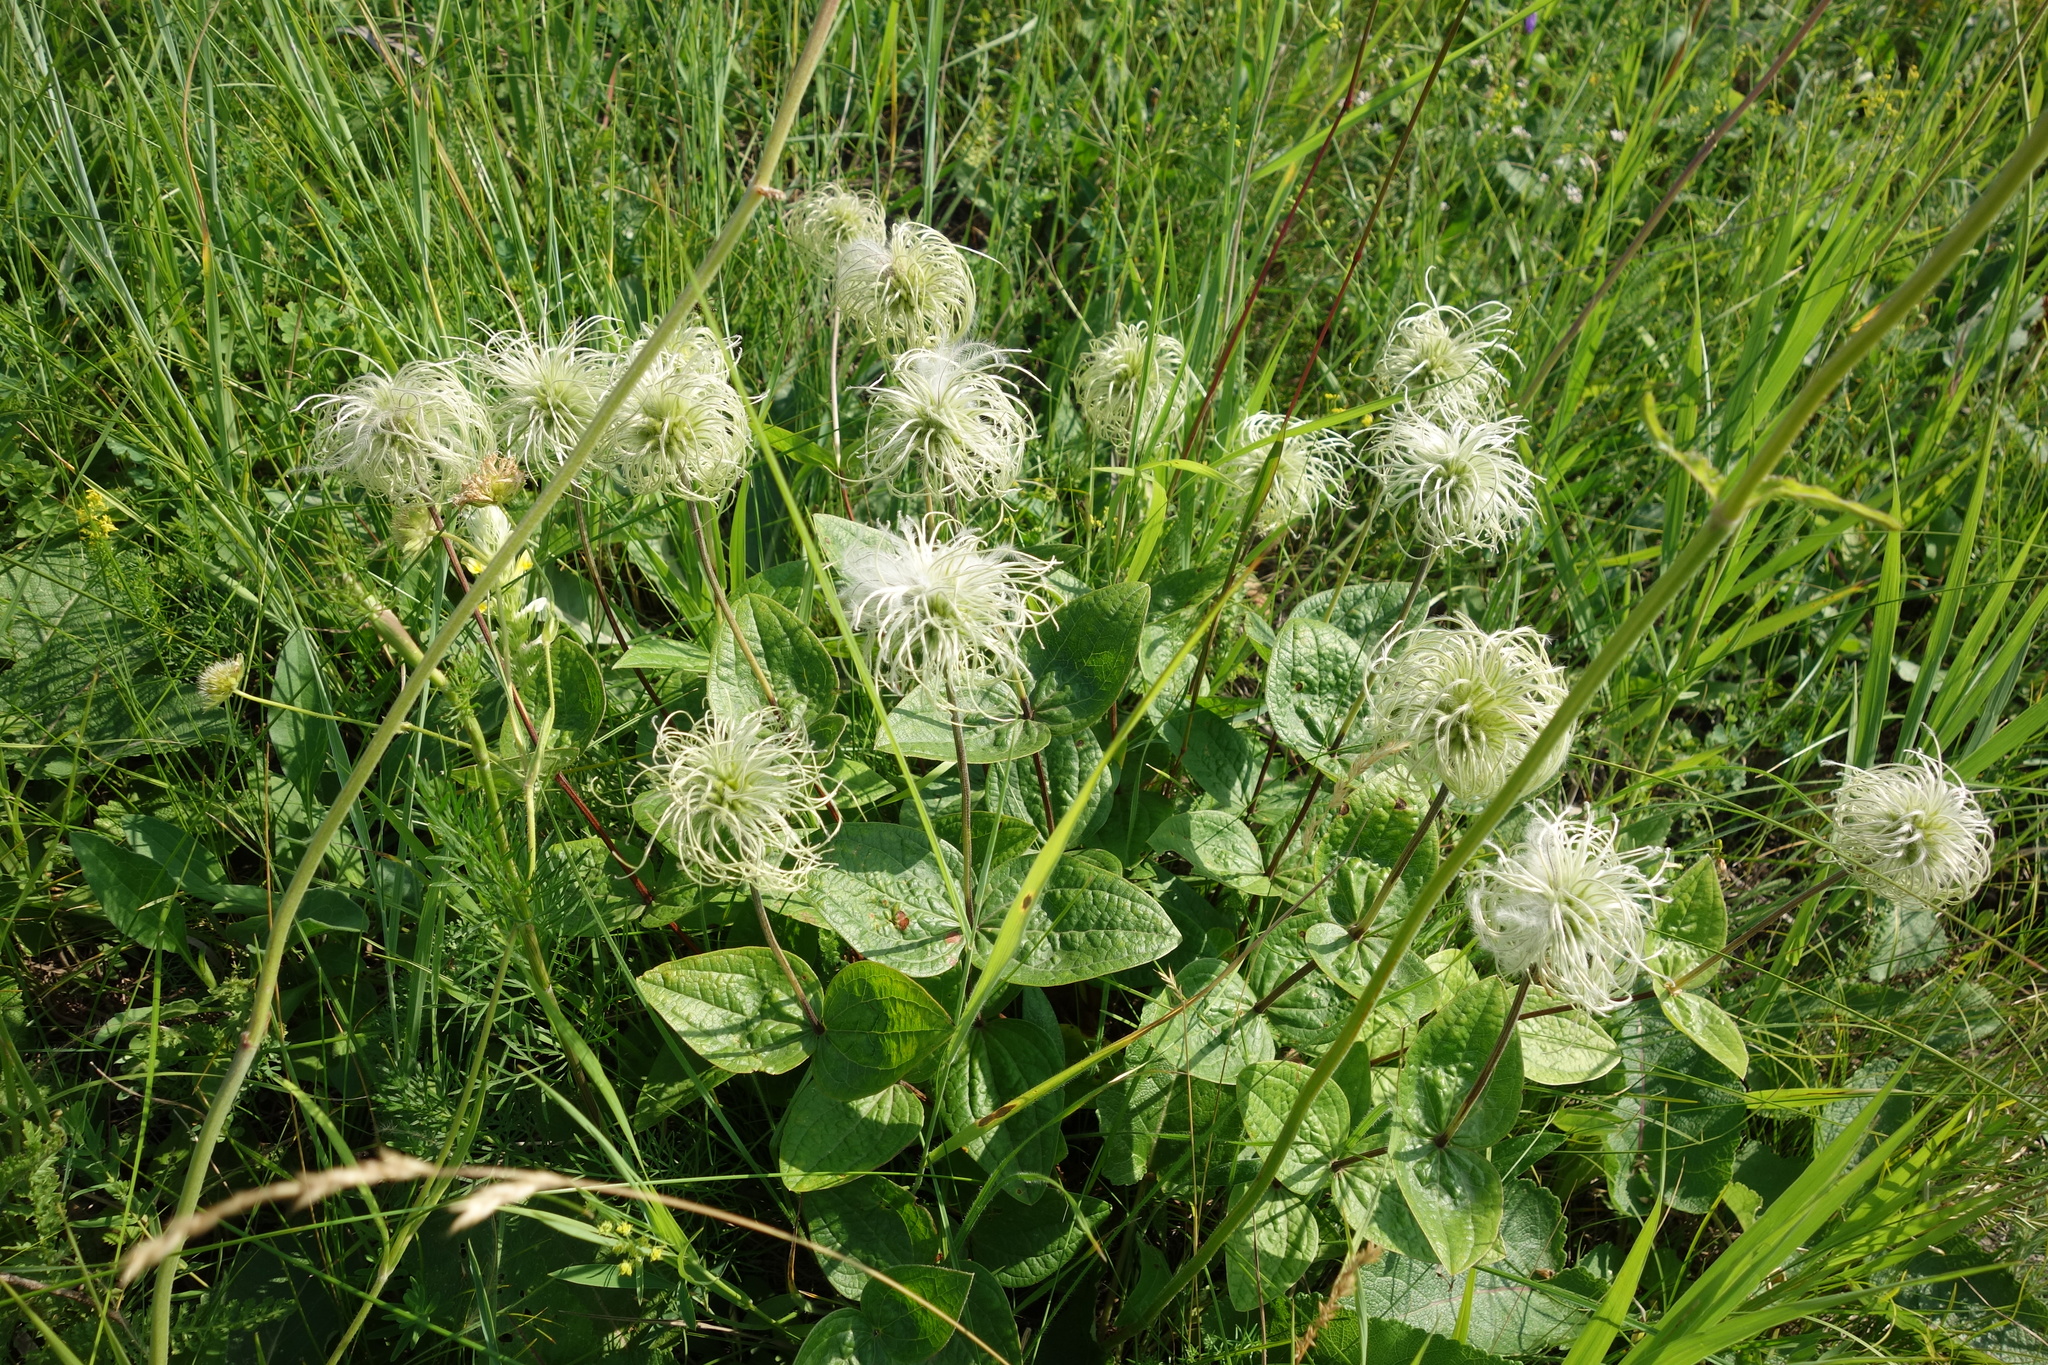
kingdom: Plantae
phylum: Tracheophyta
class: Magnoliopsida
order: Ranunculales
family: Ranunculaceae
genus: Clematis
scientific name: Clematis integrifolia
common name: Solitary clematis
